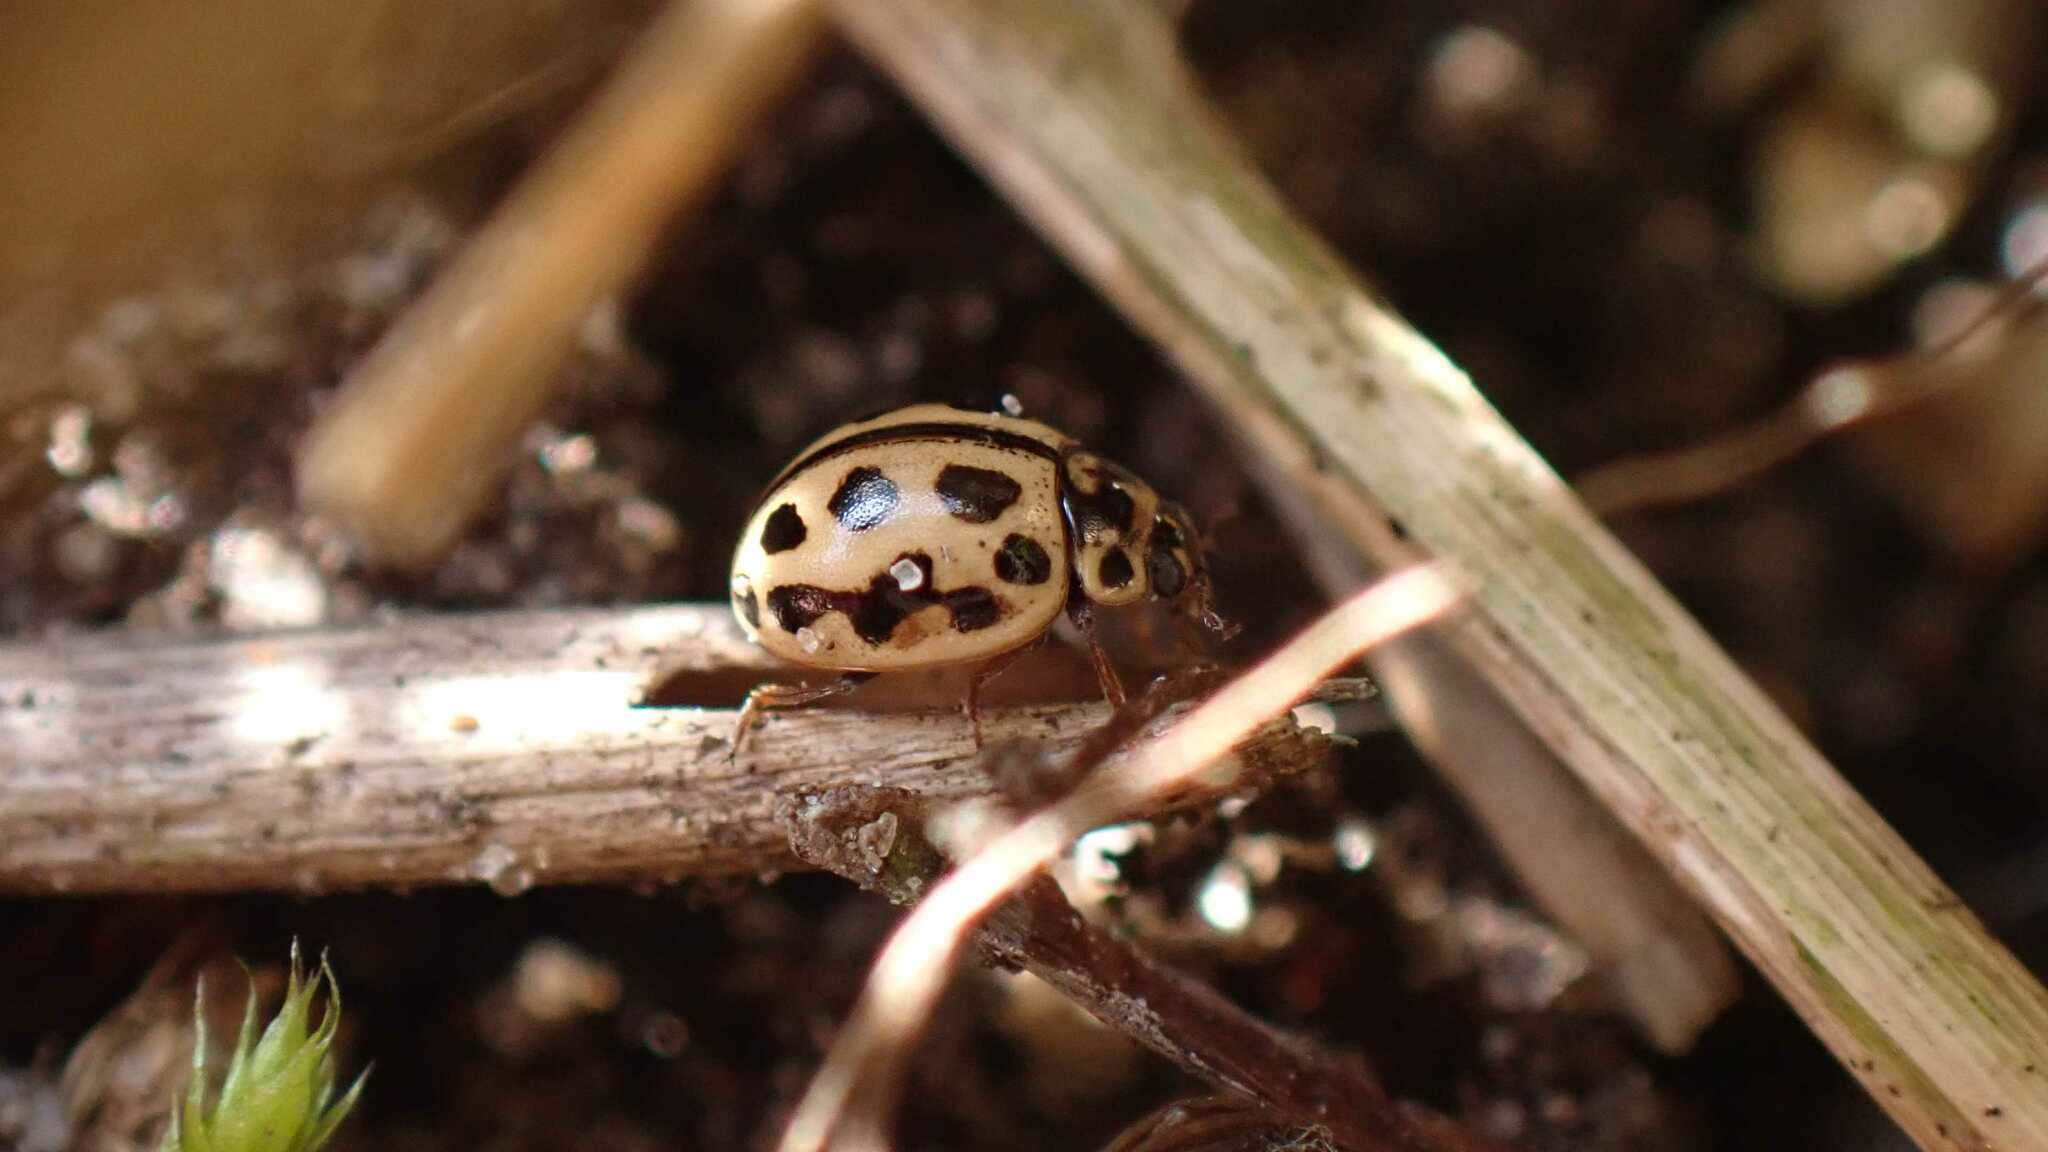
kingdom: Animalia
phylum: Arthropoda
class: Insecta
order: Coleoptera
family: Coccinellidae
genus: Tytthaspis
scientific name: Tytthaspis sedecimpunctata
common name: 16-spot ladybird
